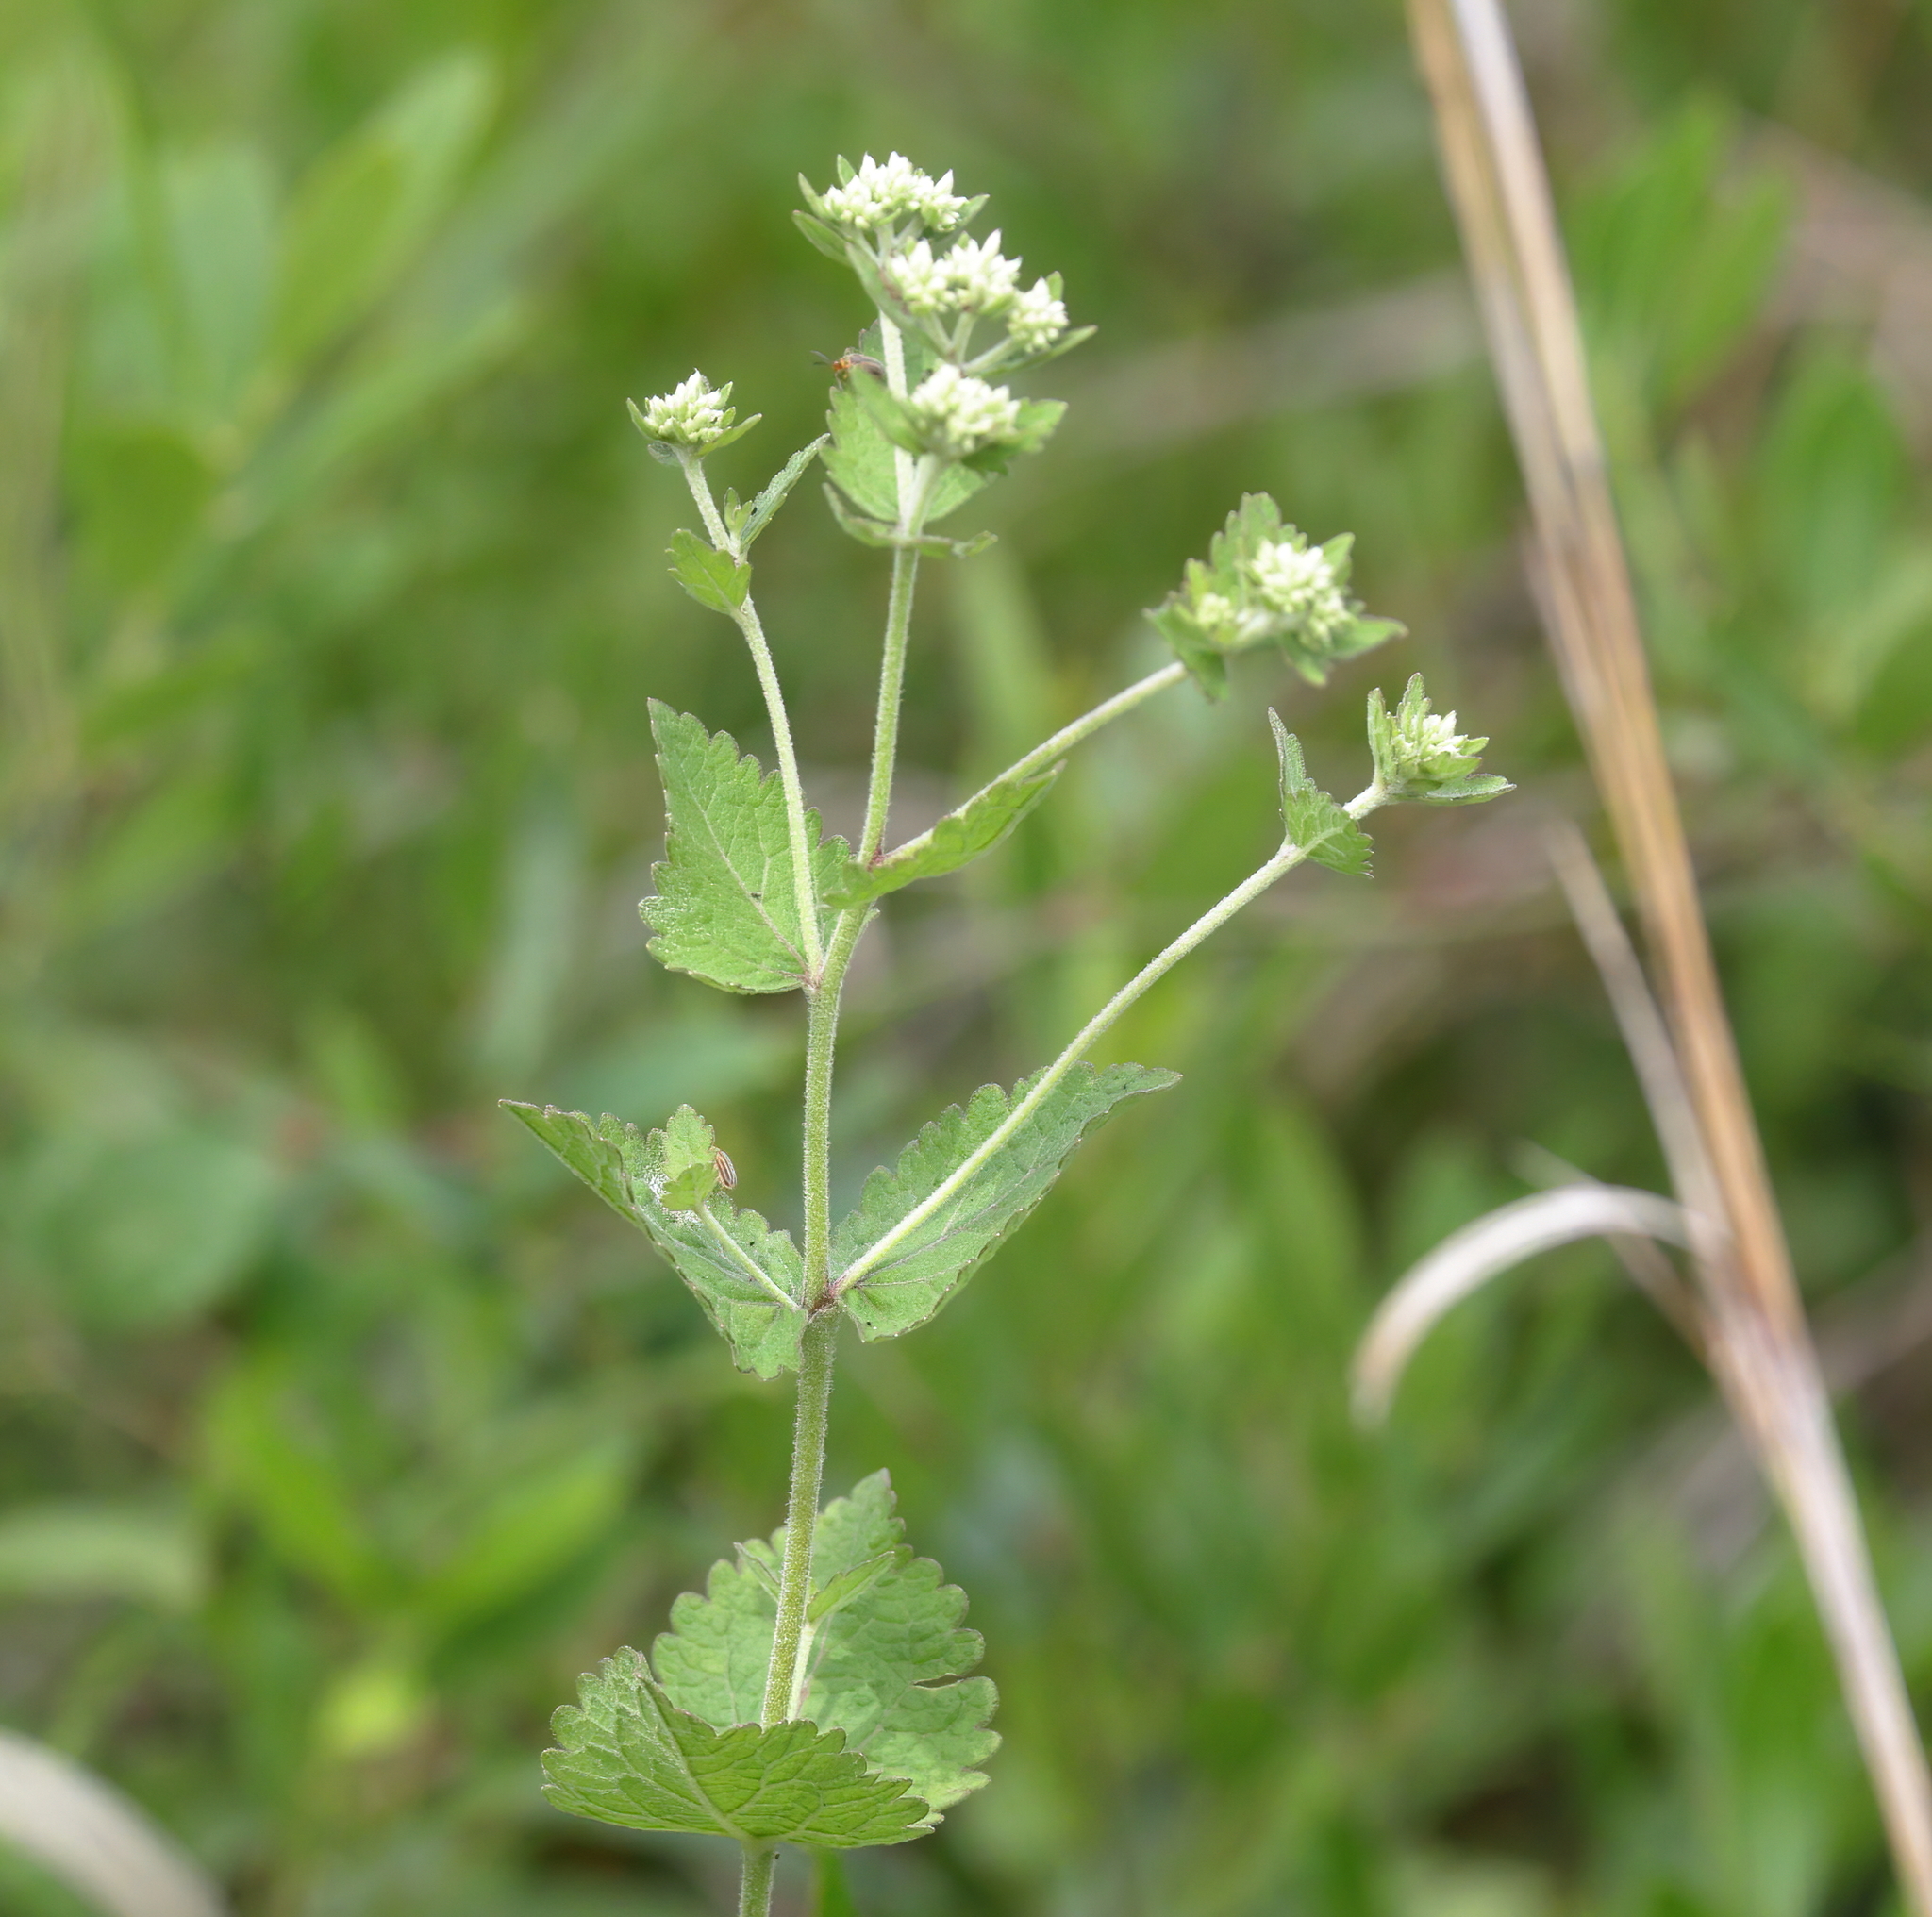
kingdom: Plantae
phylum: Tracheophyta
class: Magnoliopsida
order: Asterales
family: Asteraceae
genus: Eupatorium
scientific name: Eupatorium rotundifolium
